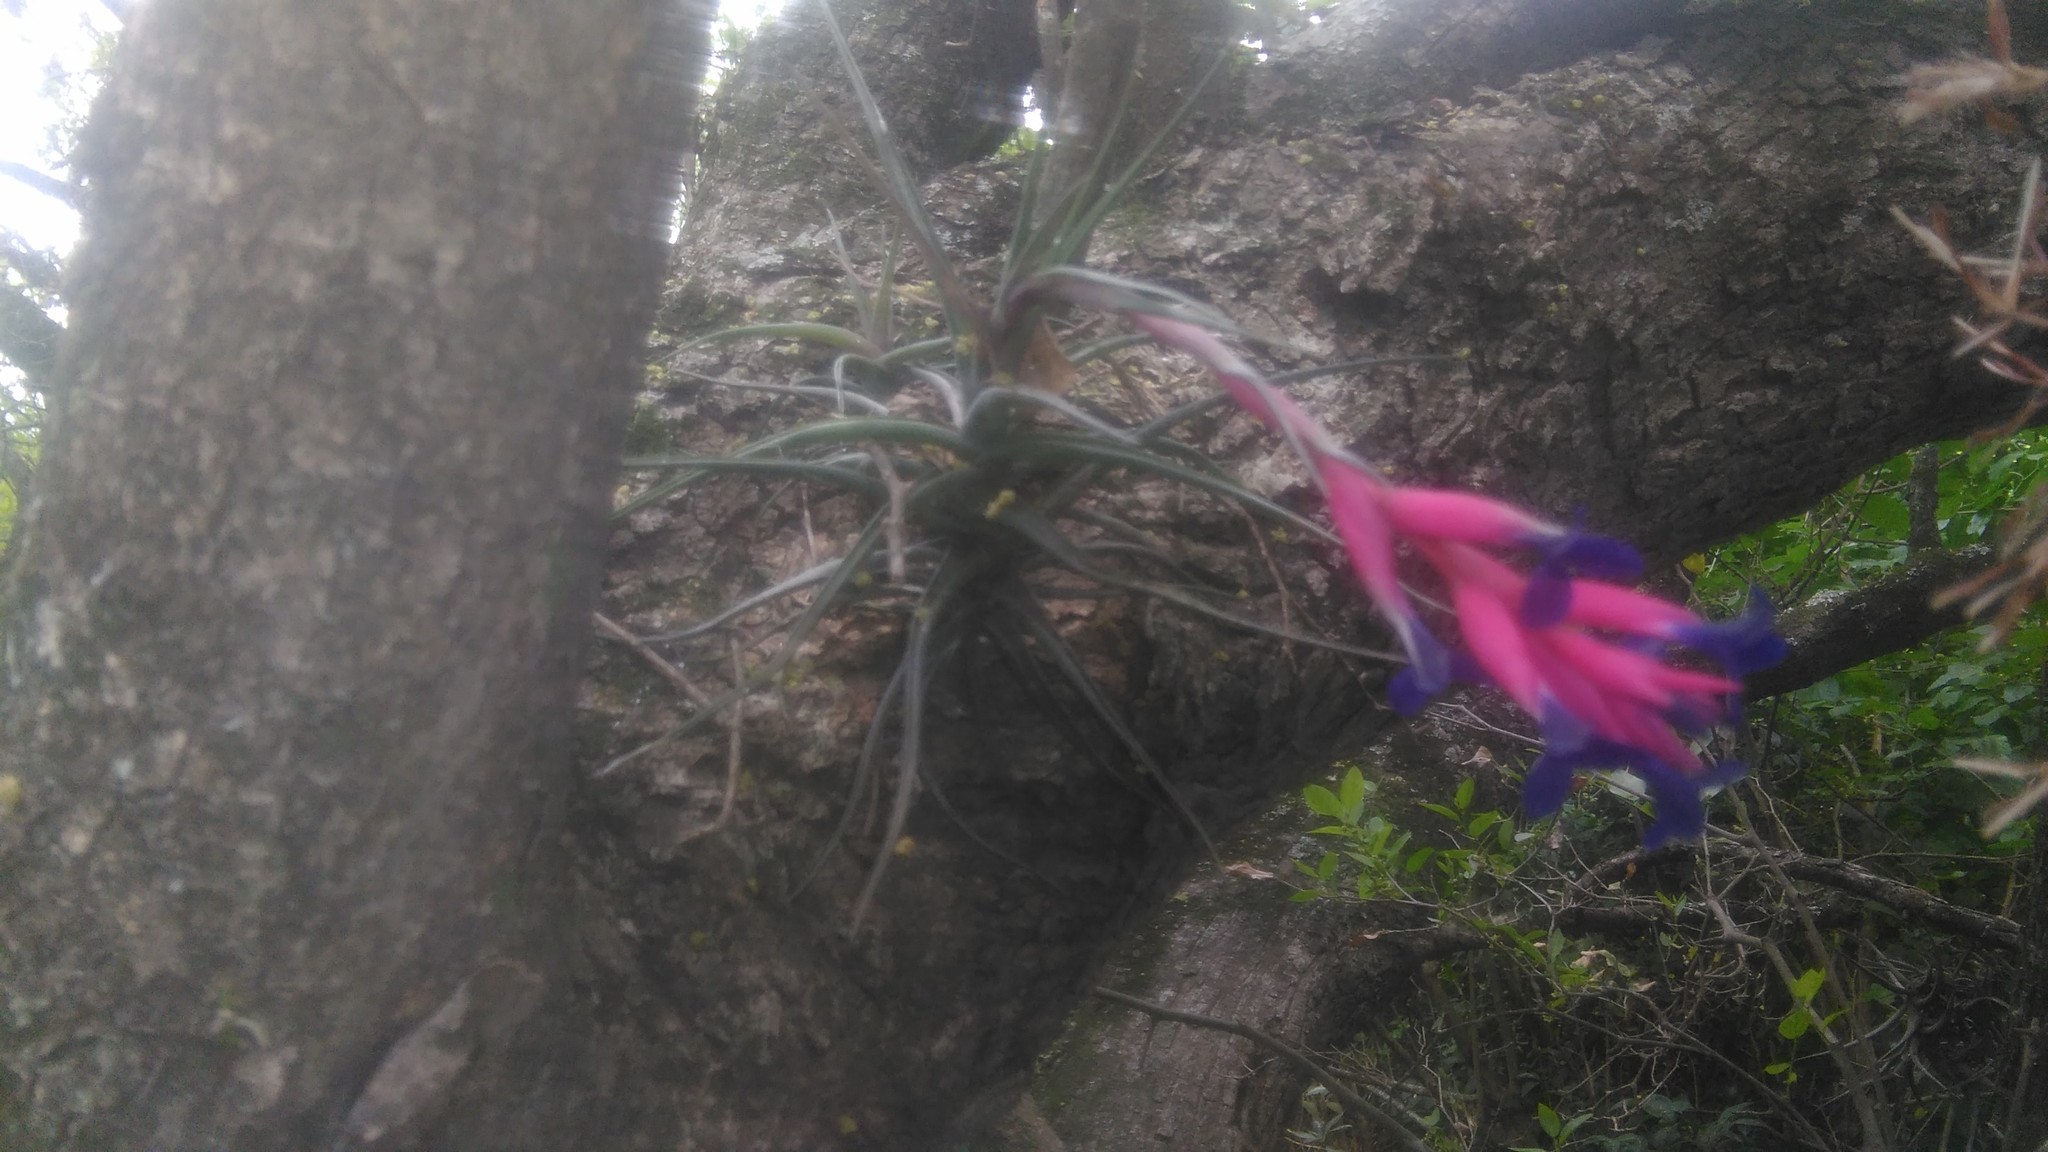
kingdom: Plantae
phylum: Tracheophyta
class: Liliopsida
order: Poales
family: Bromeliaceae
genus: Tillandsia
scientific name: Tillandsia aeranthos
